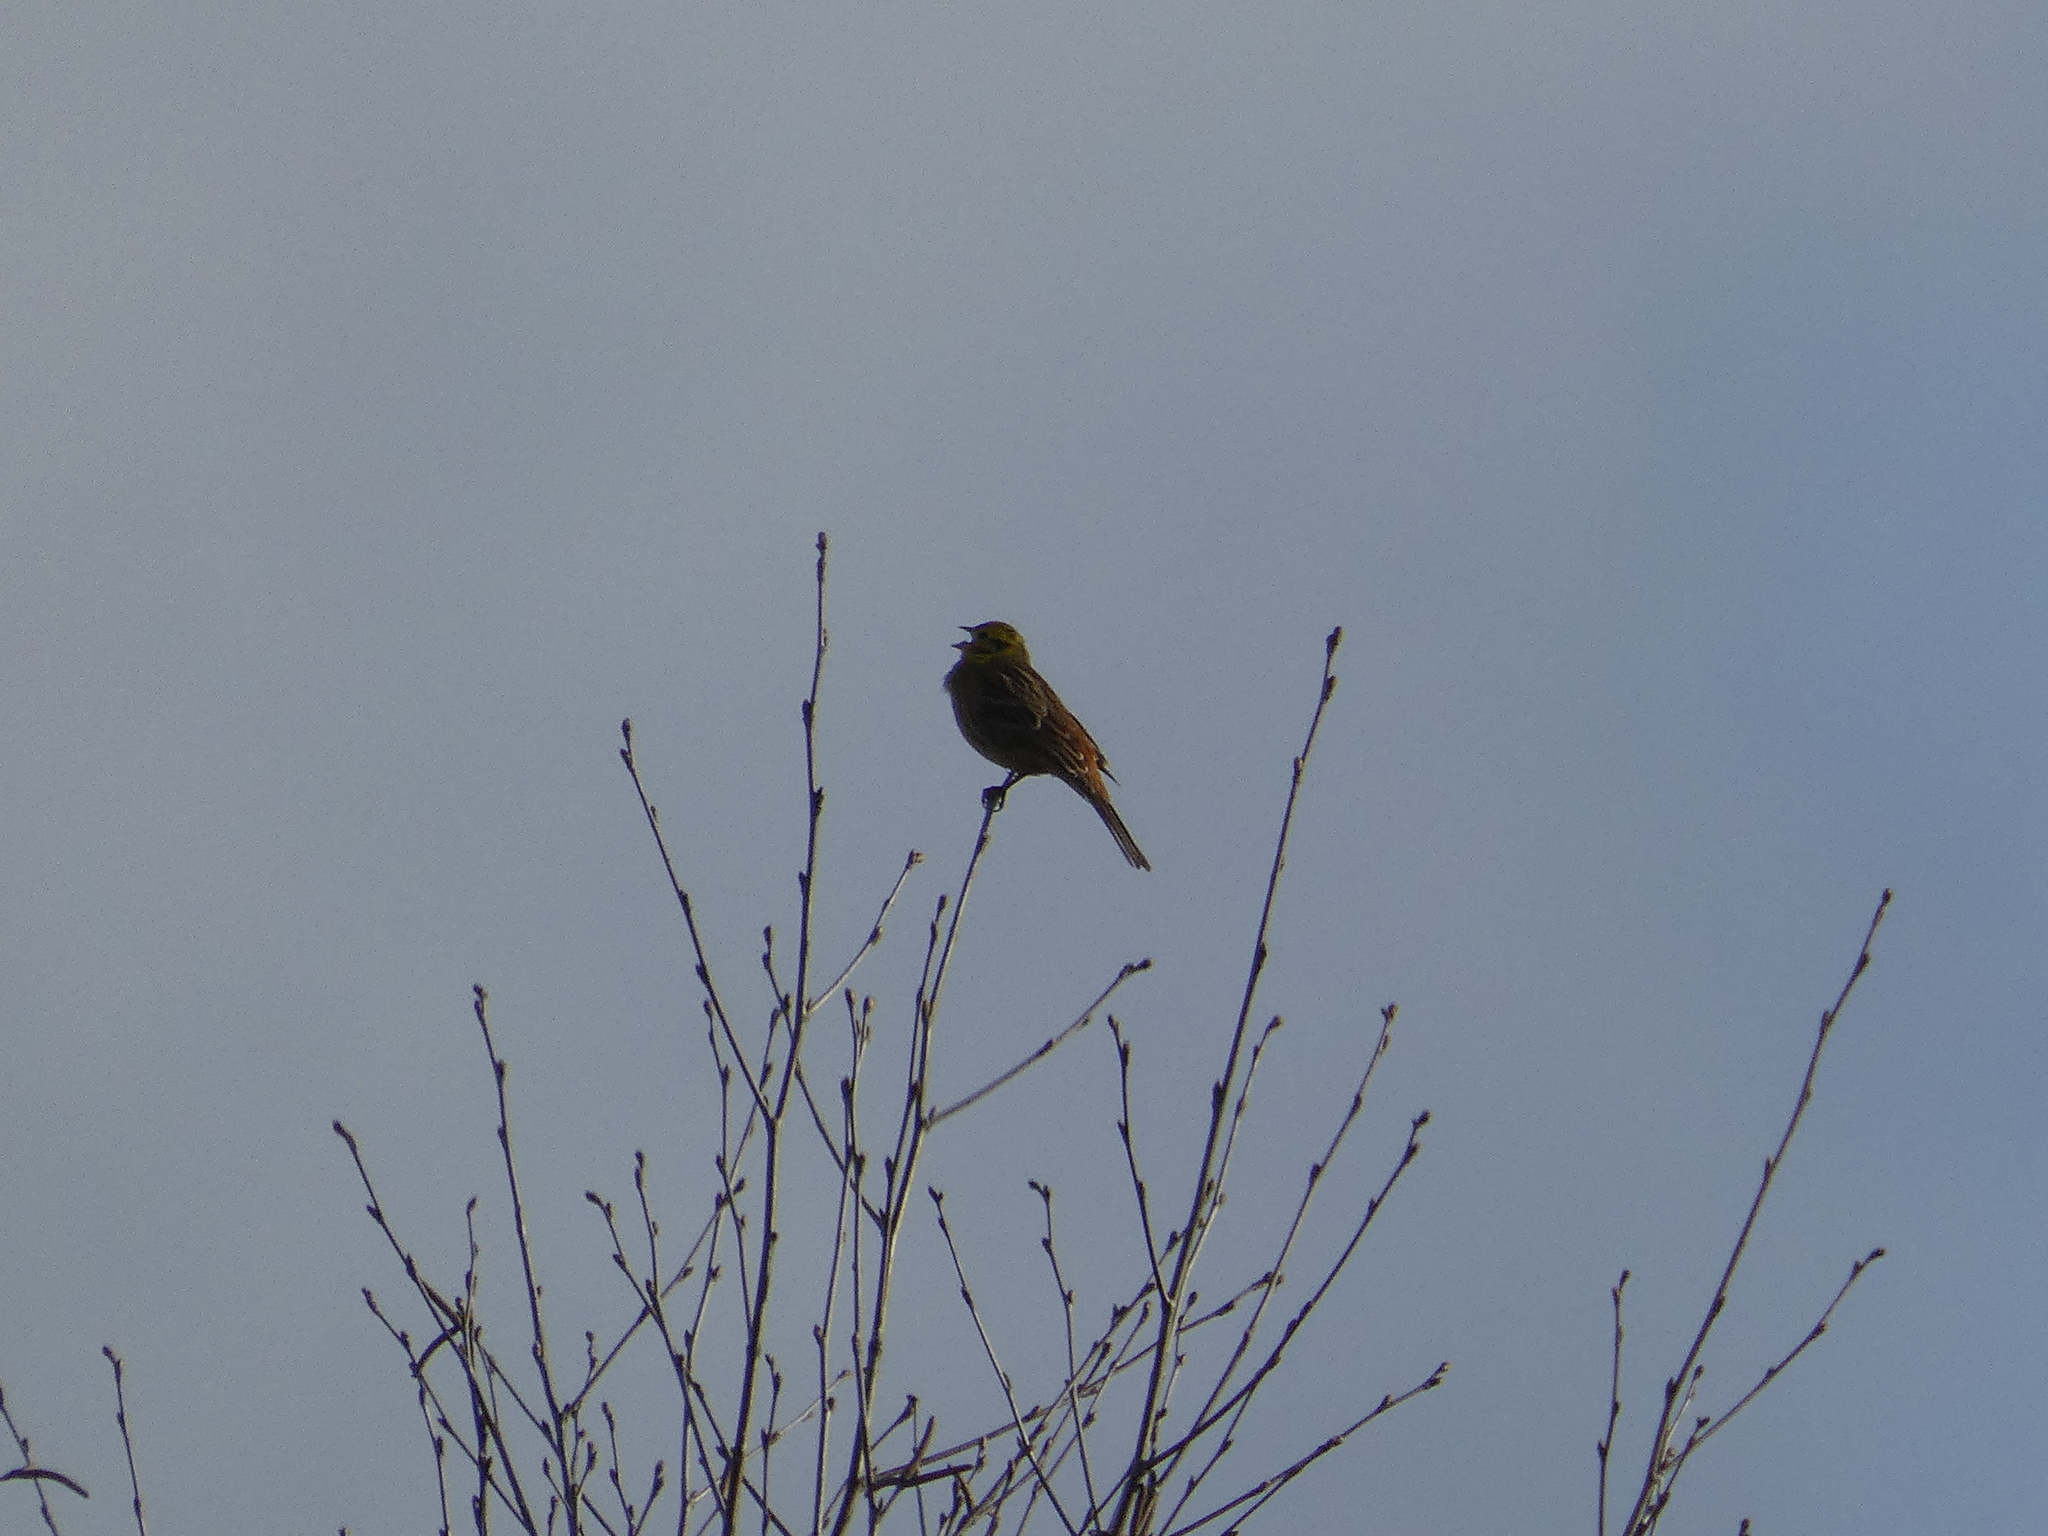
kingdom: Animalia
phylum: Chordata
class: Aves
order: Passeriformes
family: Emberizidae
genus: Emberiza
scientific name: Emberiza citrinella
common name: Yellowhammer
